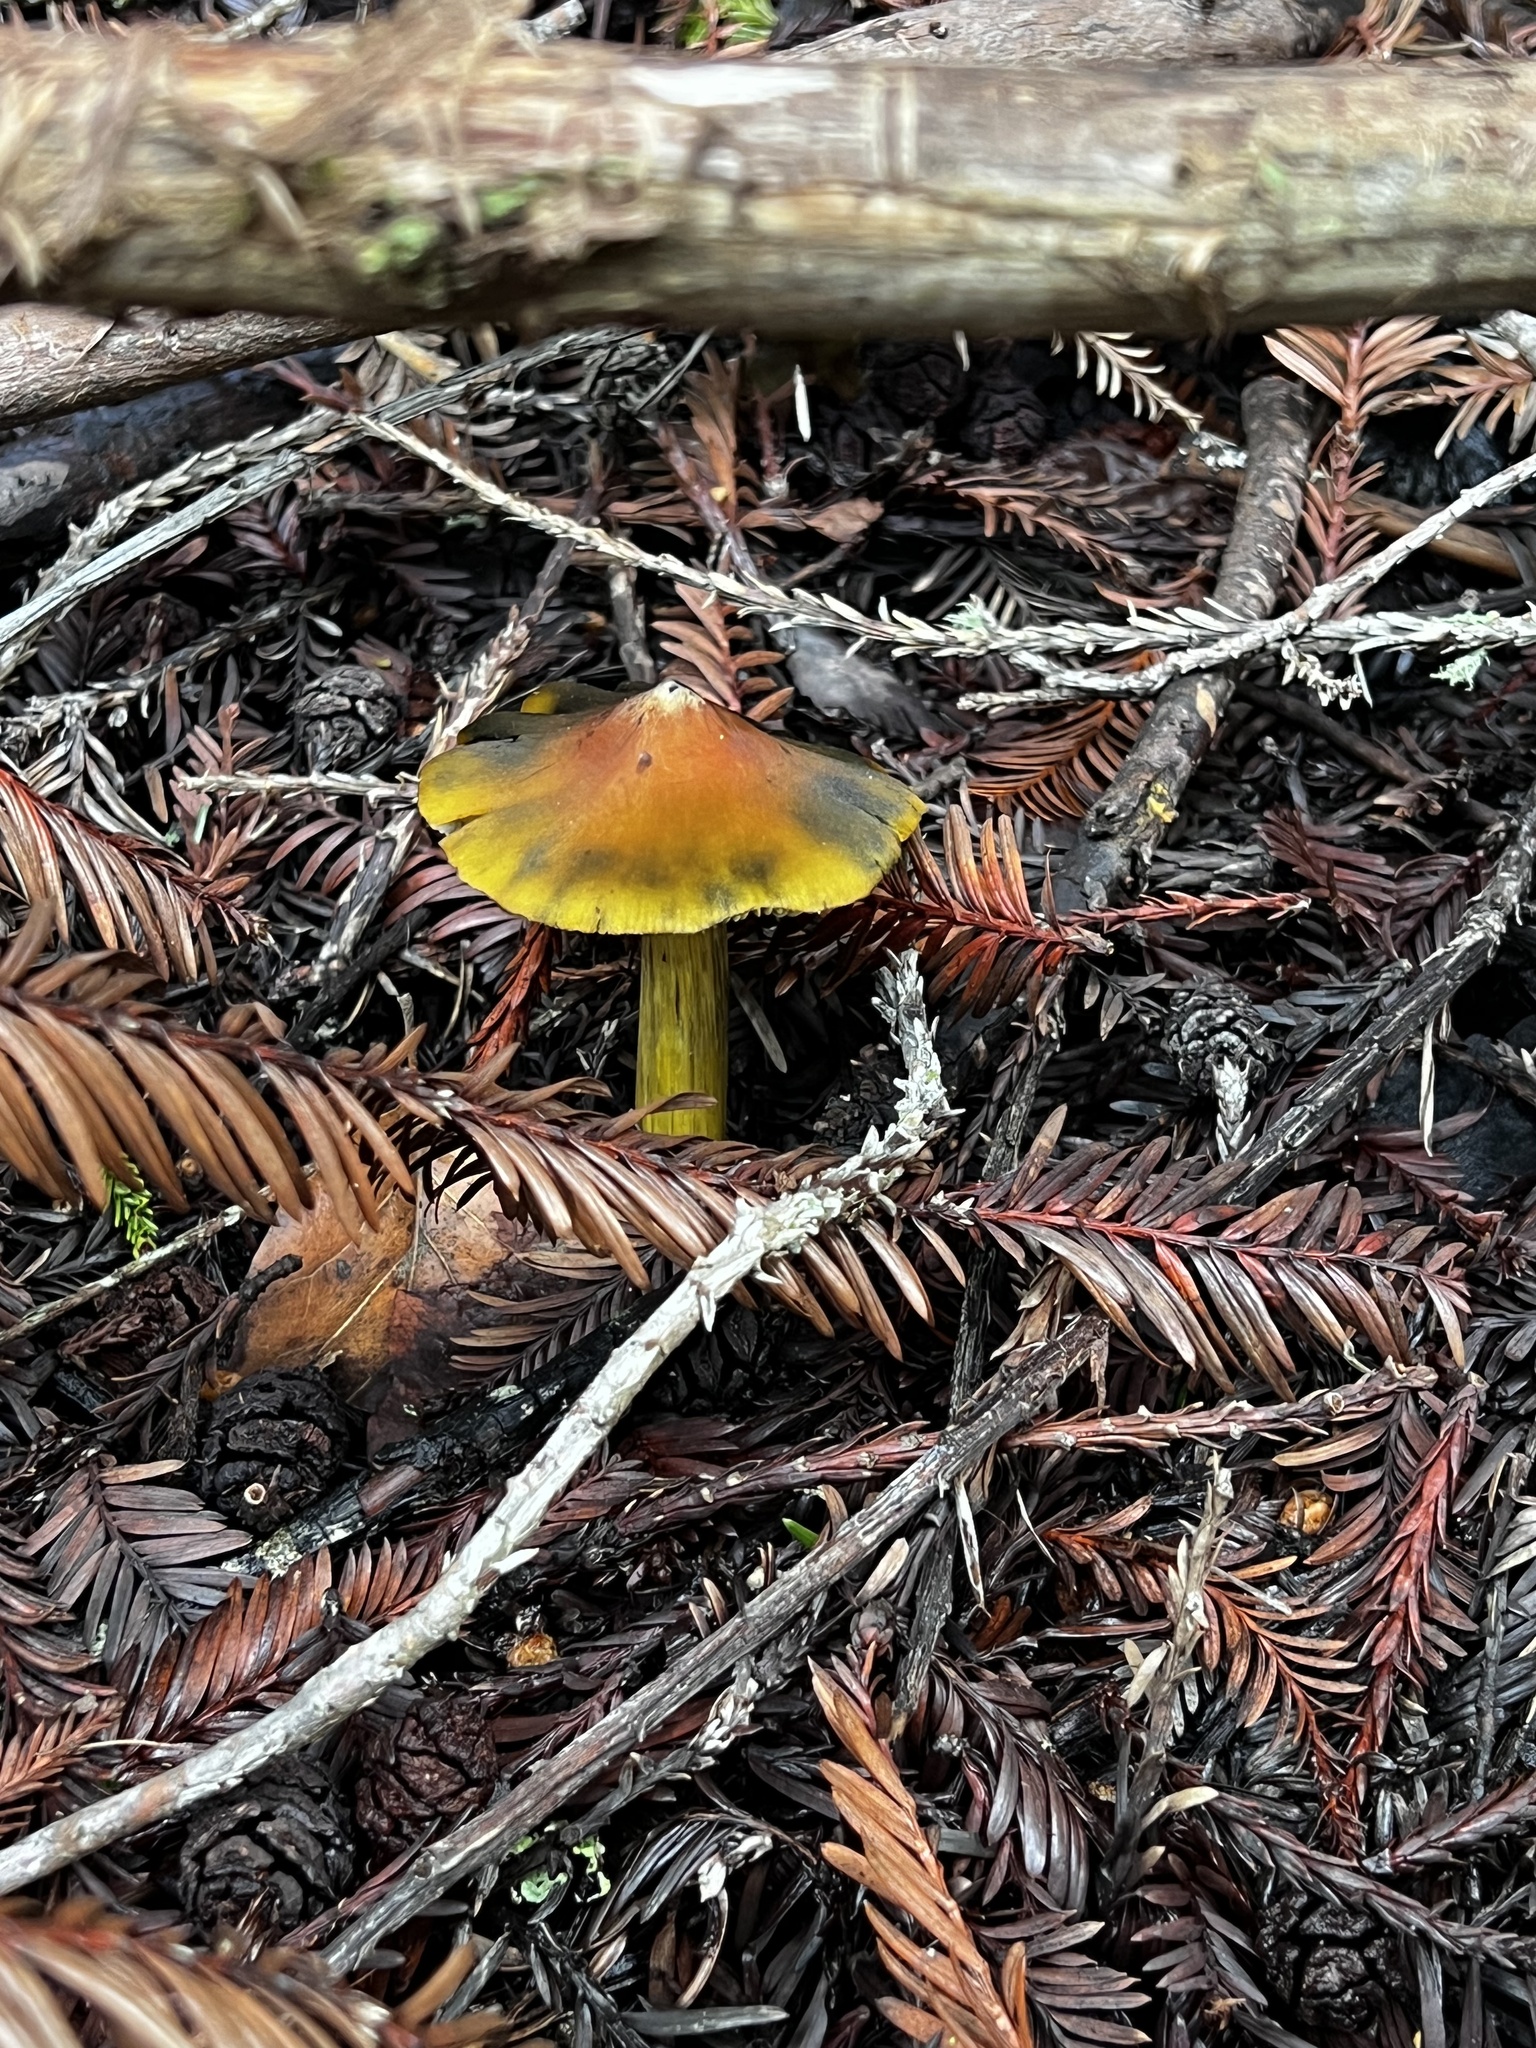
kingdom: Fungi
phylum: Basidiomycota
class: Agaricomycetes
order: Agaricales
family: Hygrophoraceae
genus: Hygrocybe
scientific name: Hygrocybe singeri
